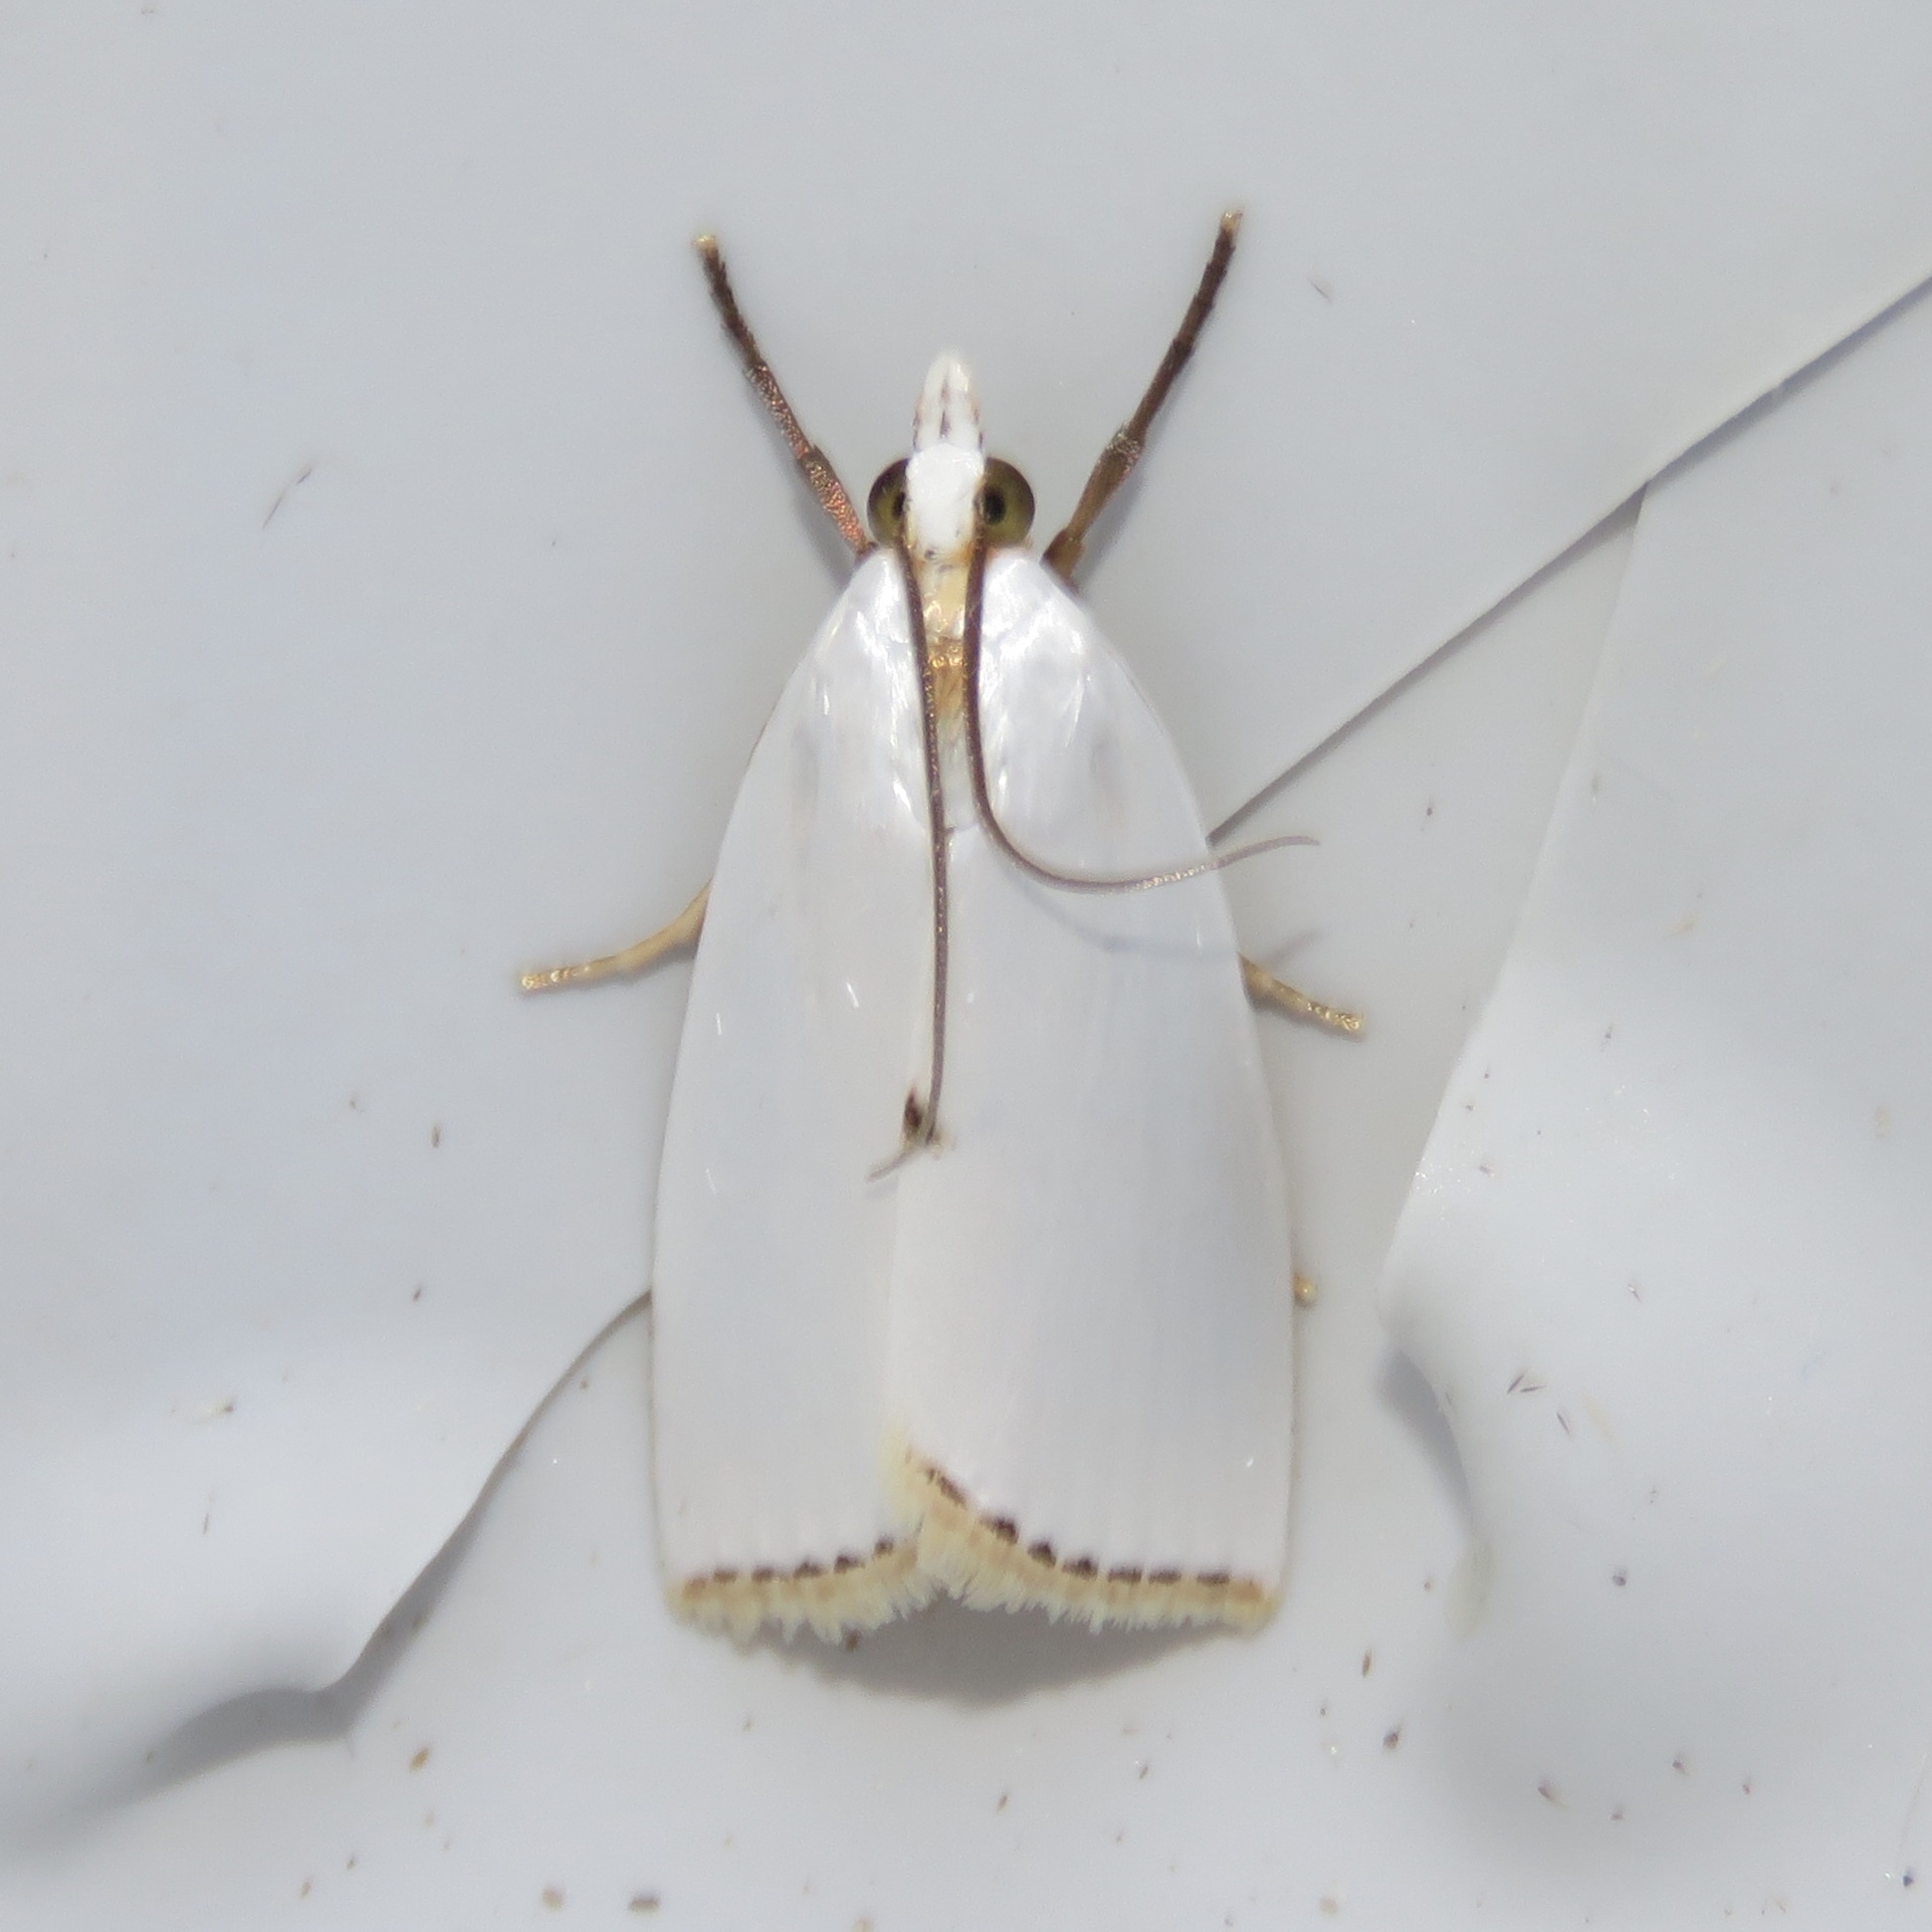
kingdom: Animalia
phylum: Arthropoda
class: Insecta
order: Lepidoptera
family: Crambidae
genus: Argyria
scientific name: Argyria nivalis
